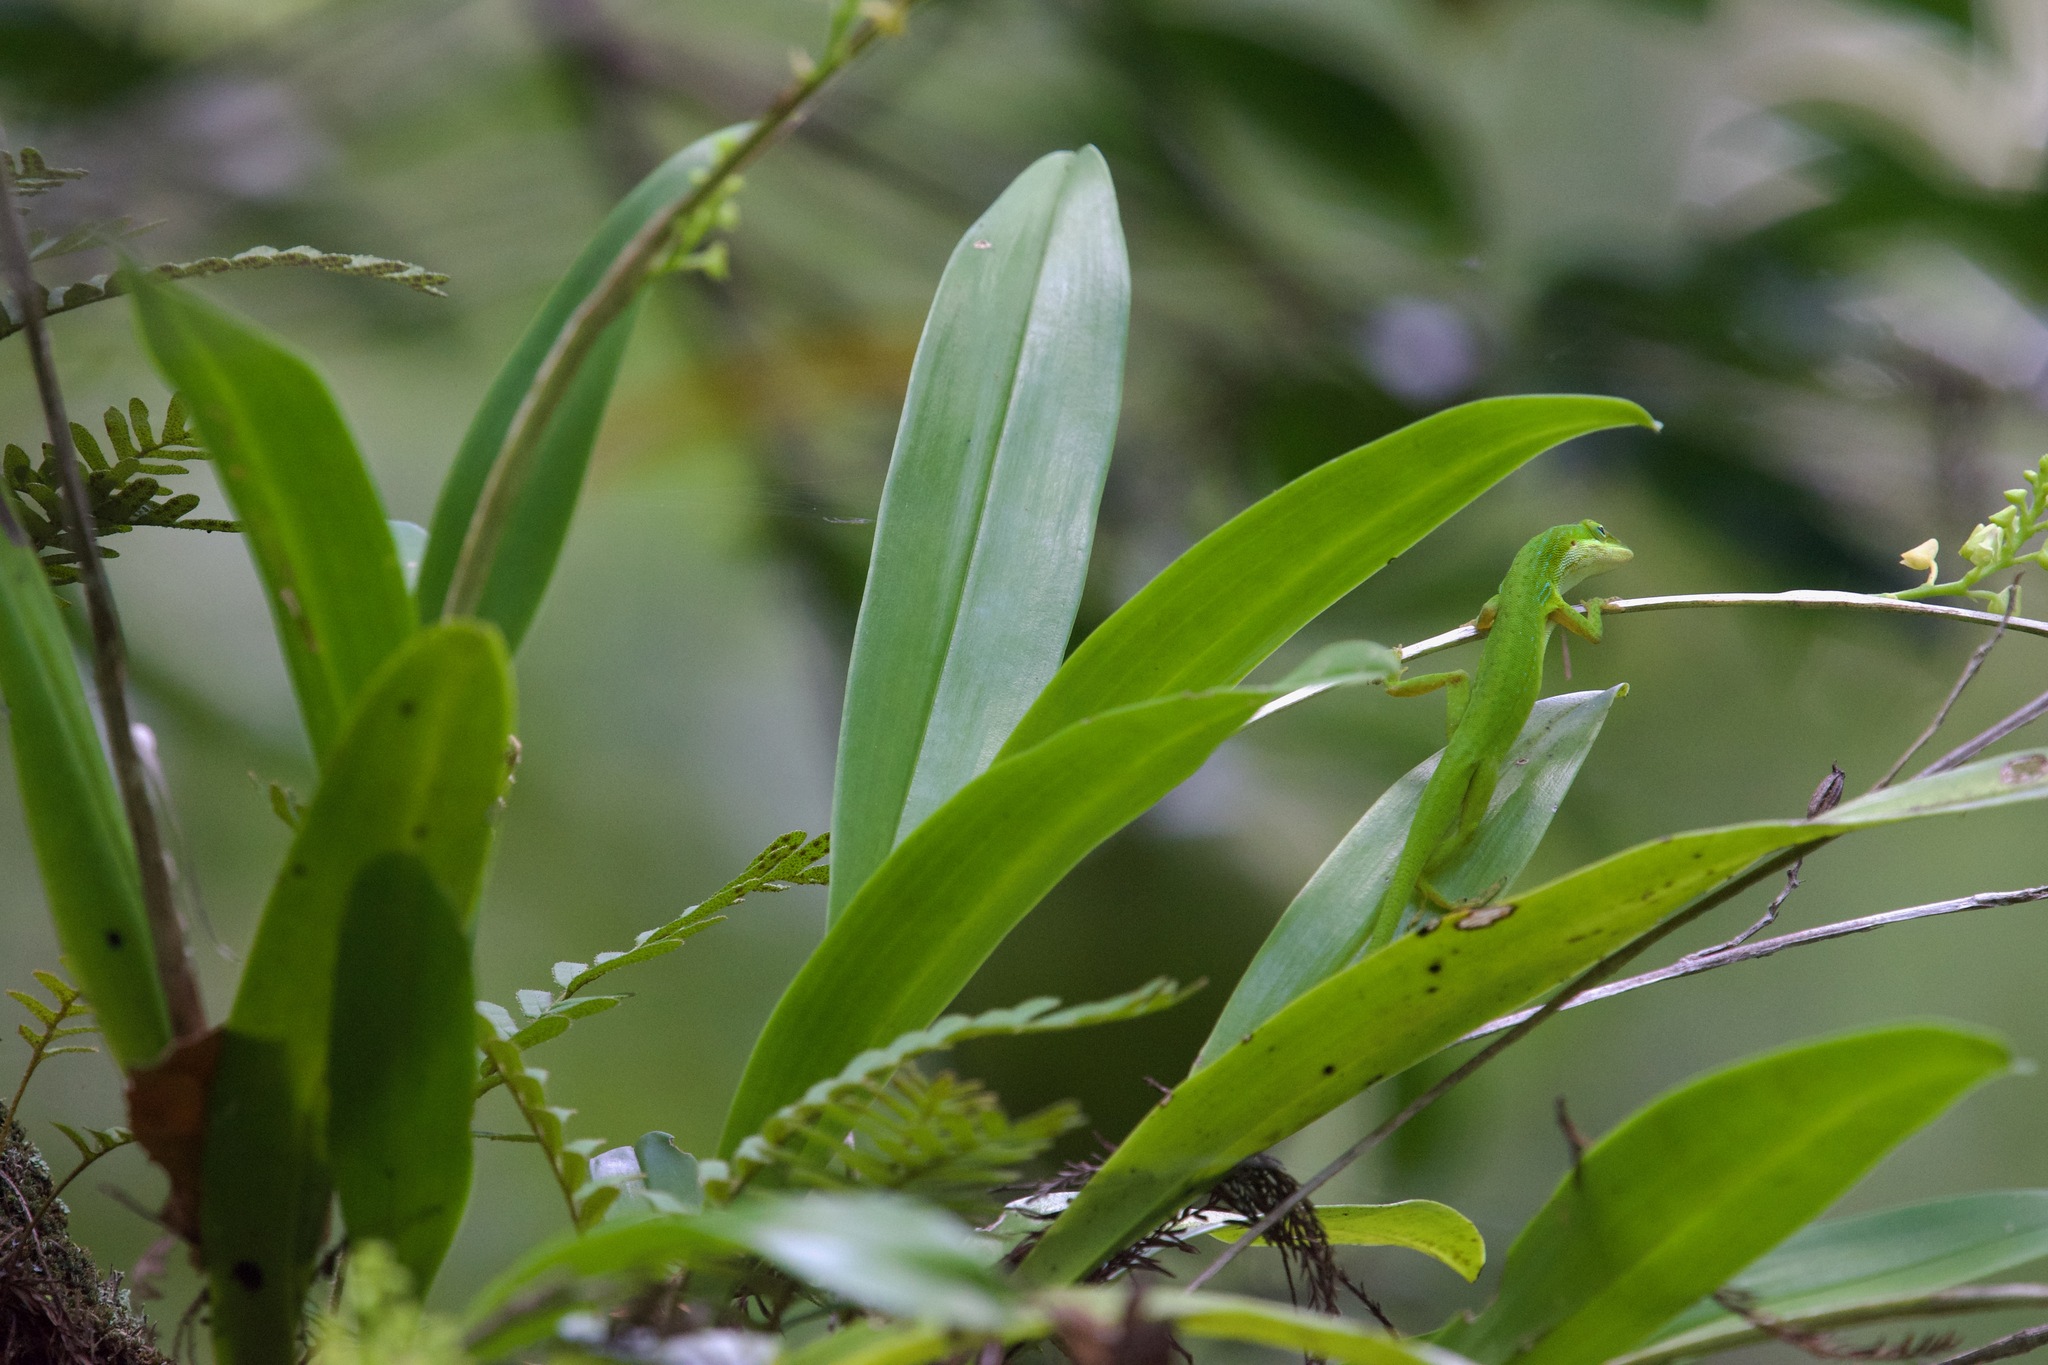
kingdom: Plantae
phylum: Tracheophyta
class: Liliopsida
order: Asparagales
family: Orchidaceae
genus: Polystachya
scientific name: Polystachya concreta
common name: Greater yellowspike orchid
